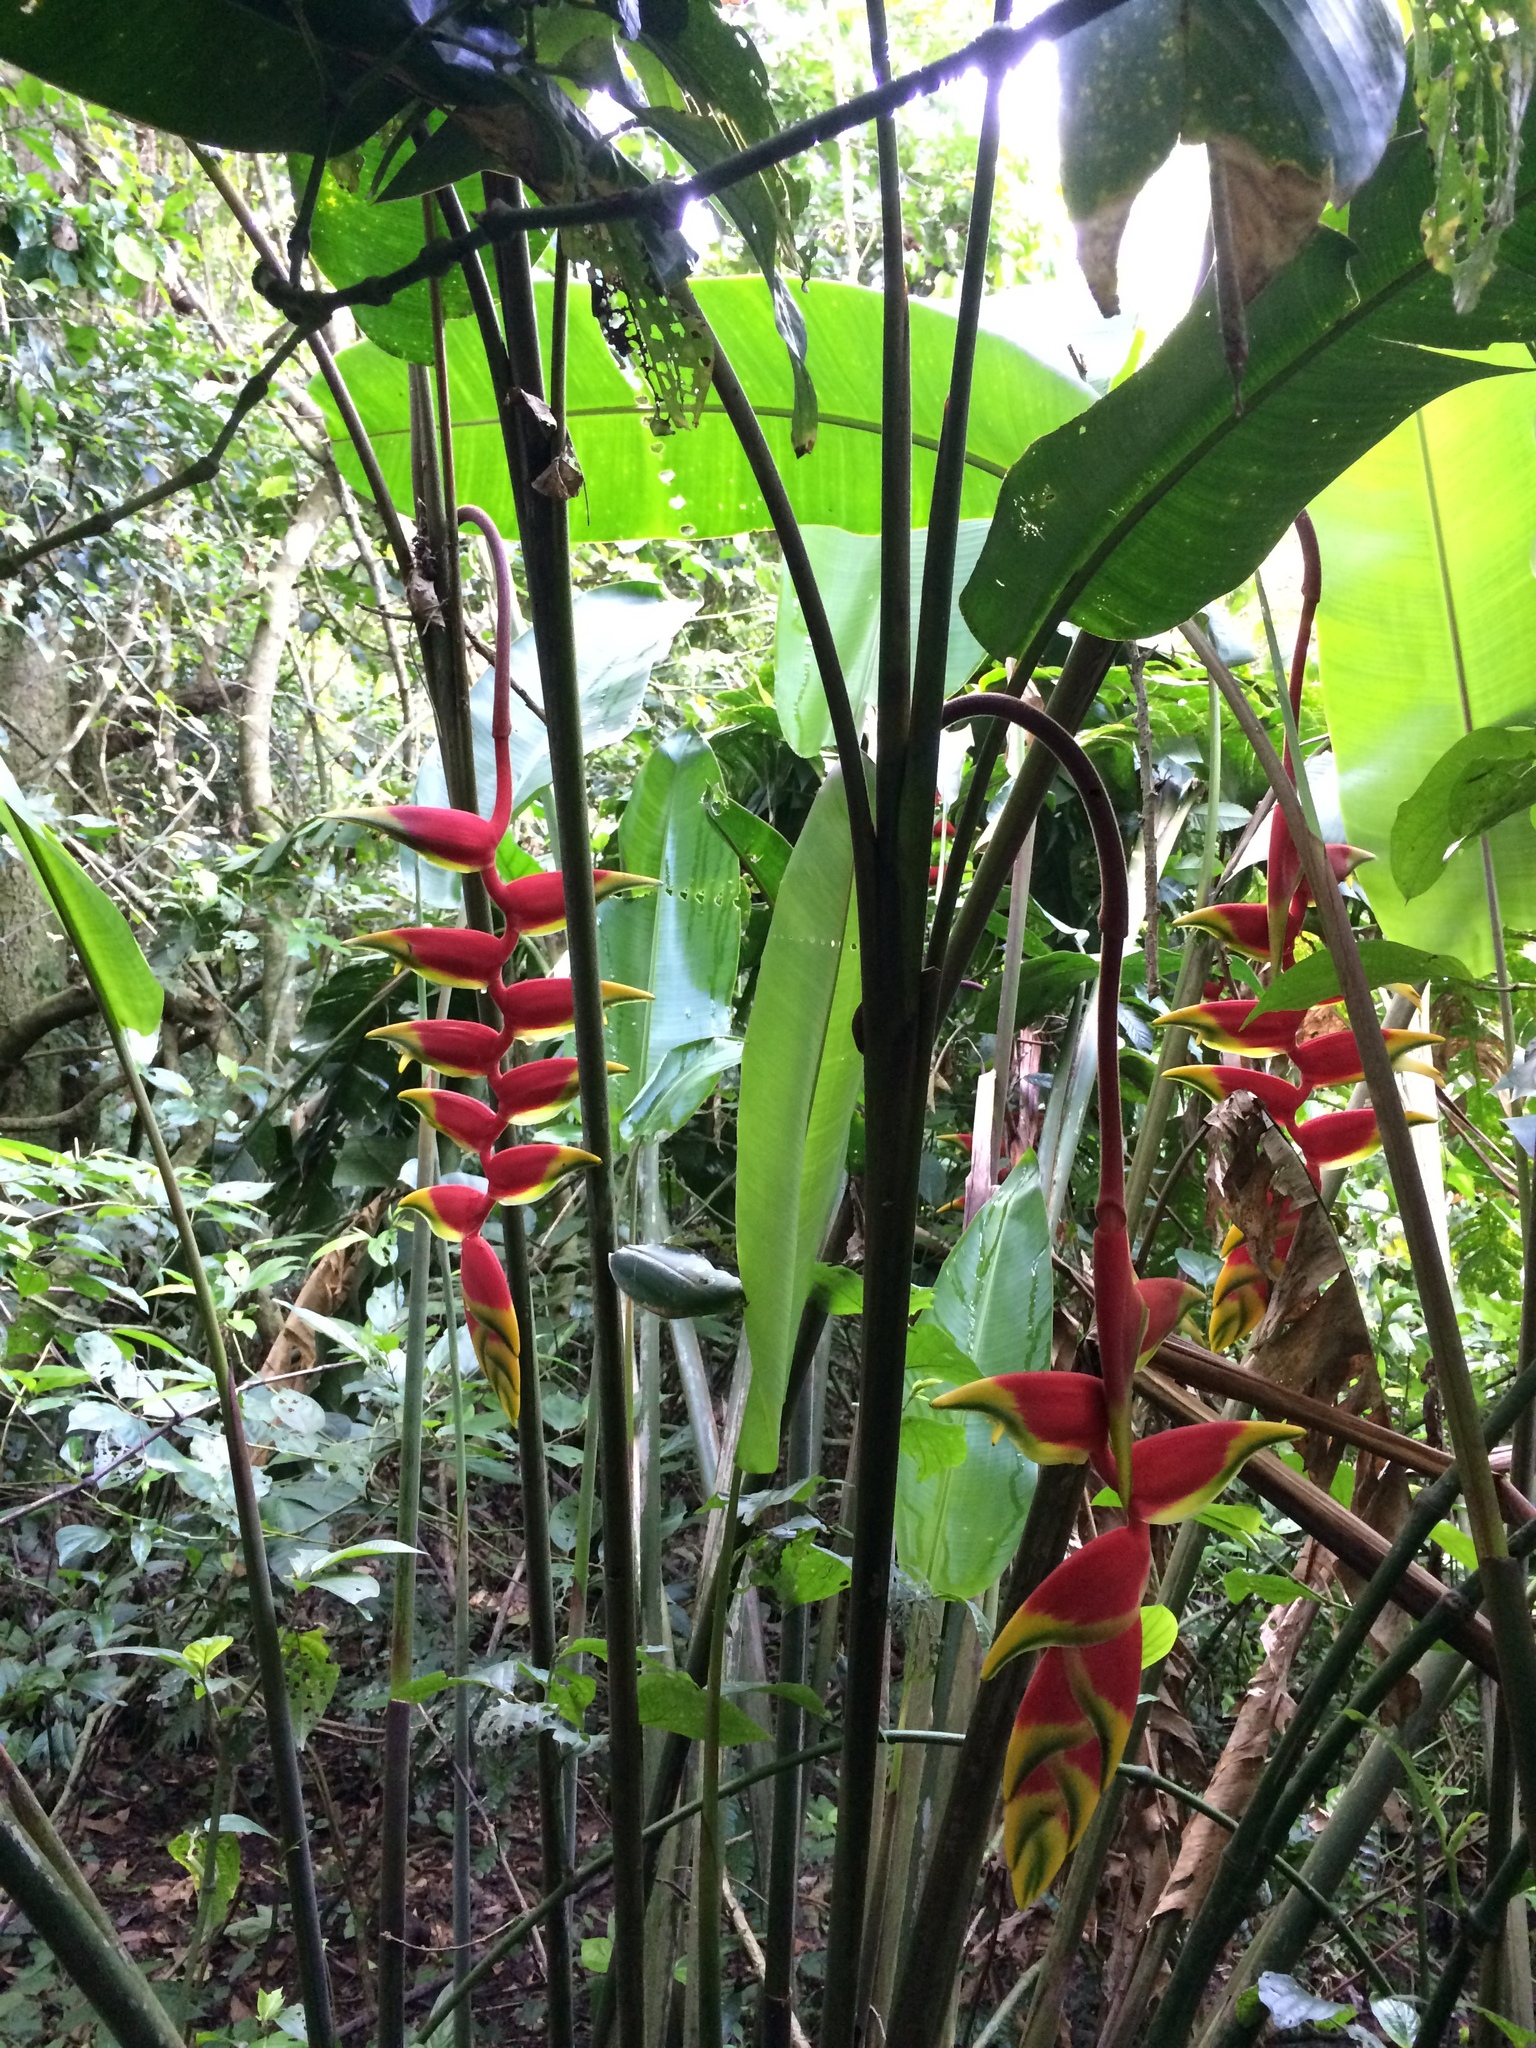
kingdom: Plantae
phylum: Tracheophyta
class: Liliopsida
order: Zingiberales
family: Heliconiaceae
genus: Heliconia
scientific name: Heliconia rostrata
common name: False bird of paradise
